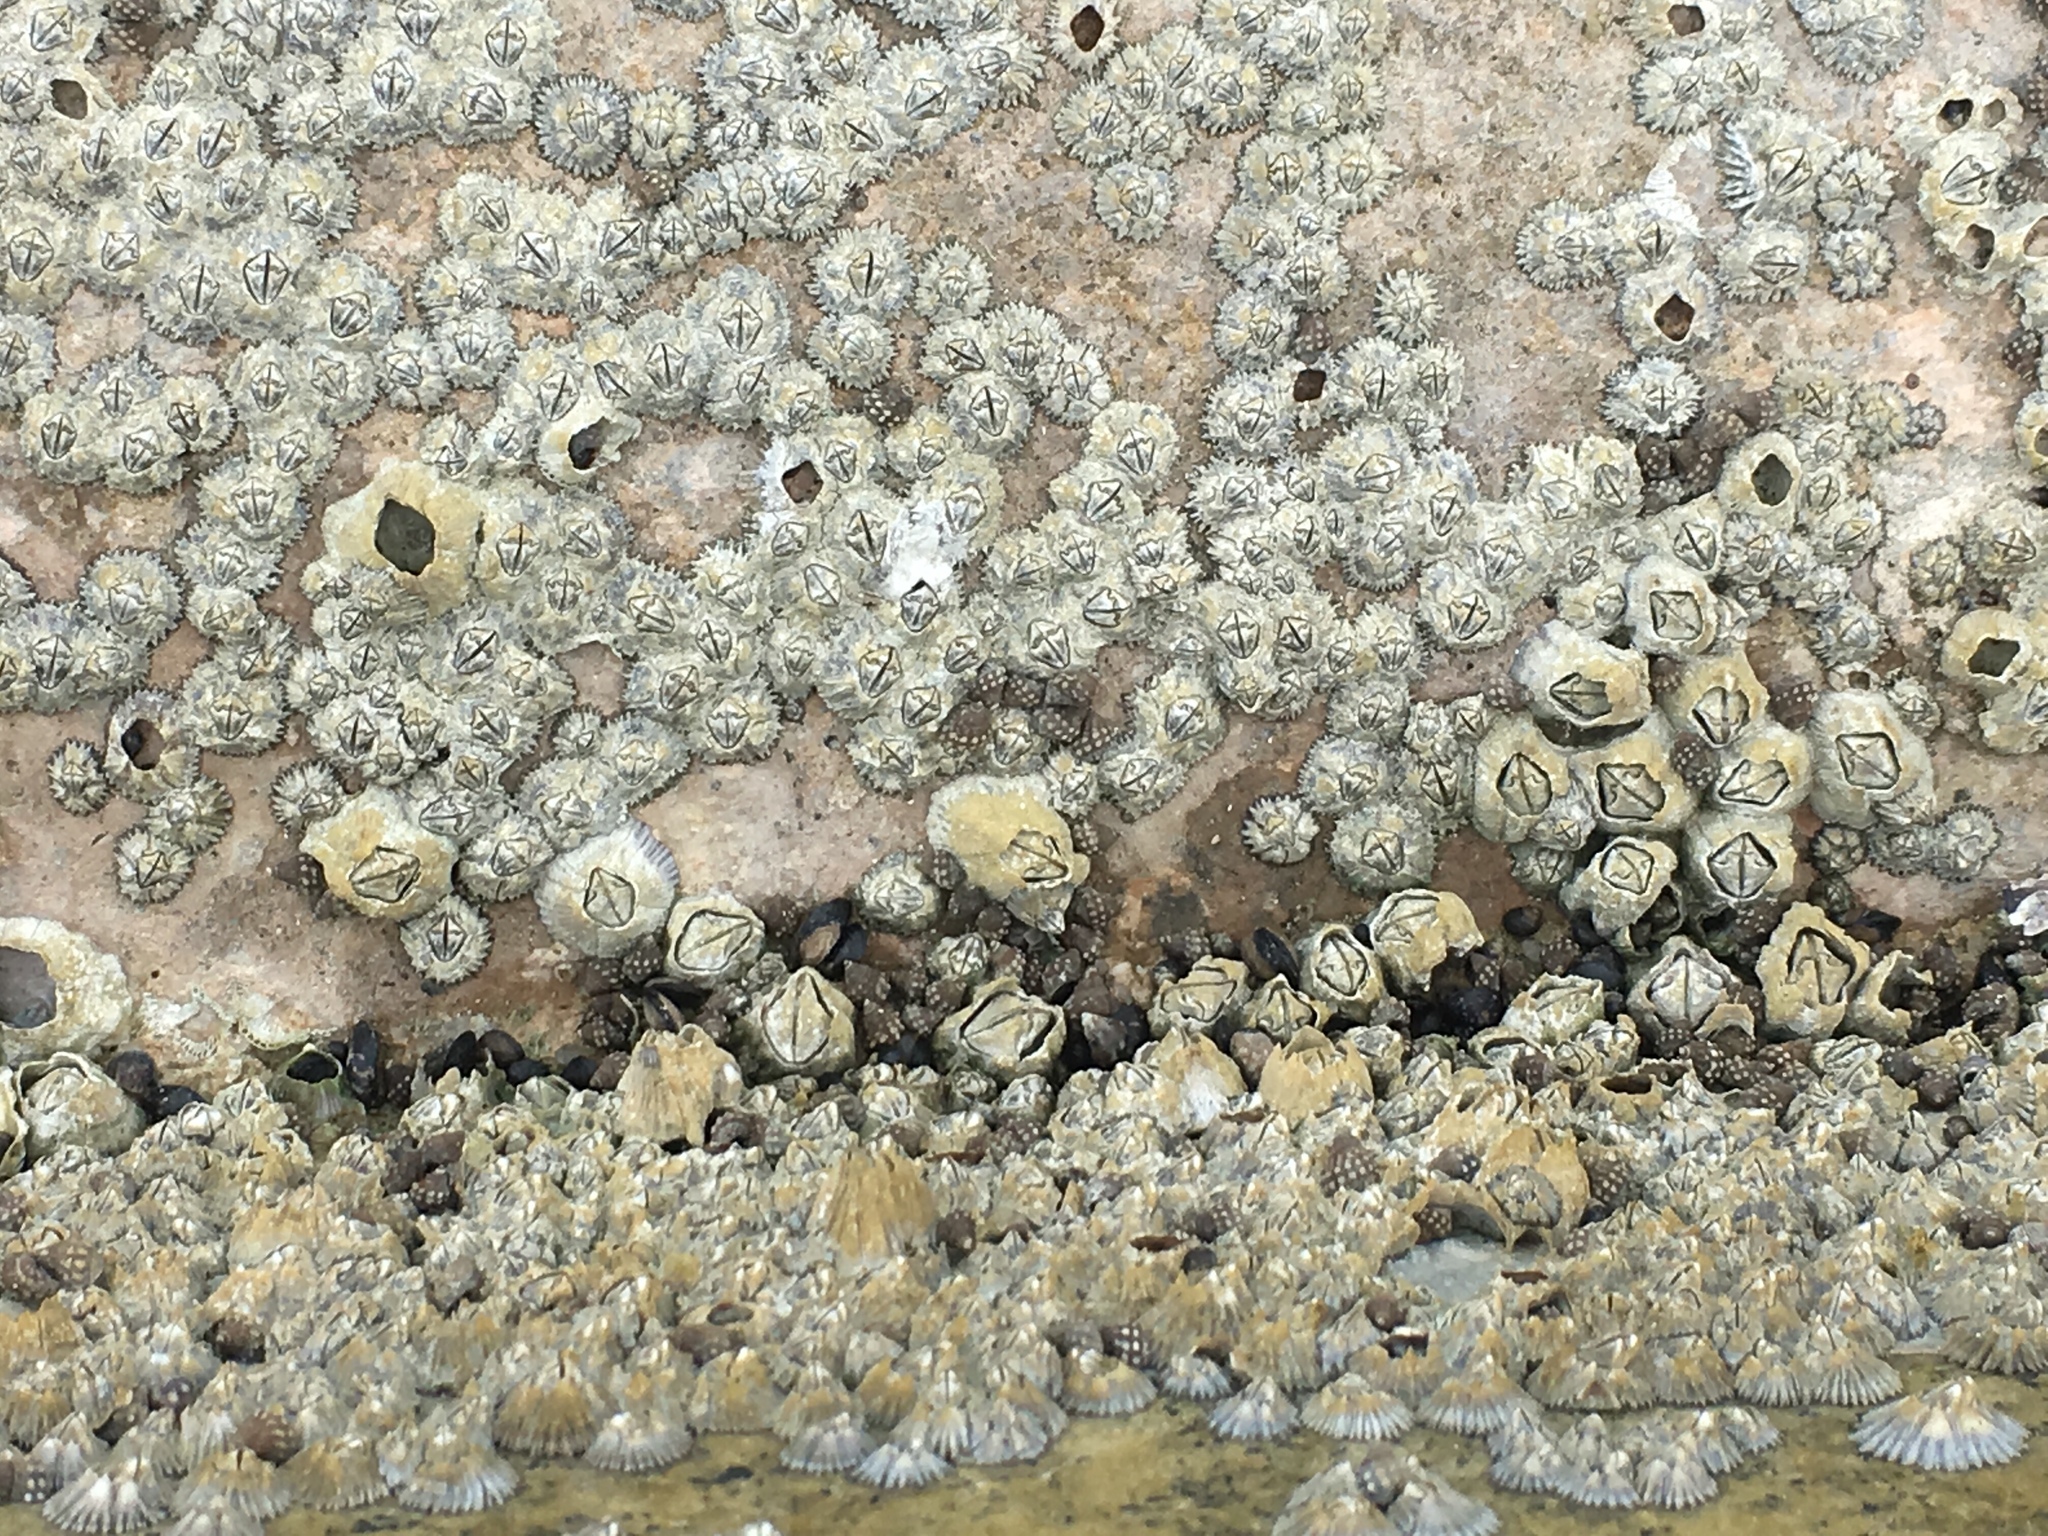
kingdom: Animalia
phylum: Arthropoda
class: Maxillopoda
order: Sessilia
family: Chthamalidae
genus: Chthamalus
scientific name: Chthamalus malayensis
